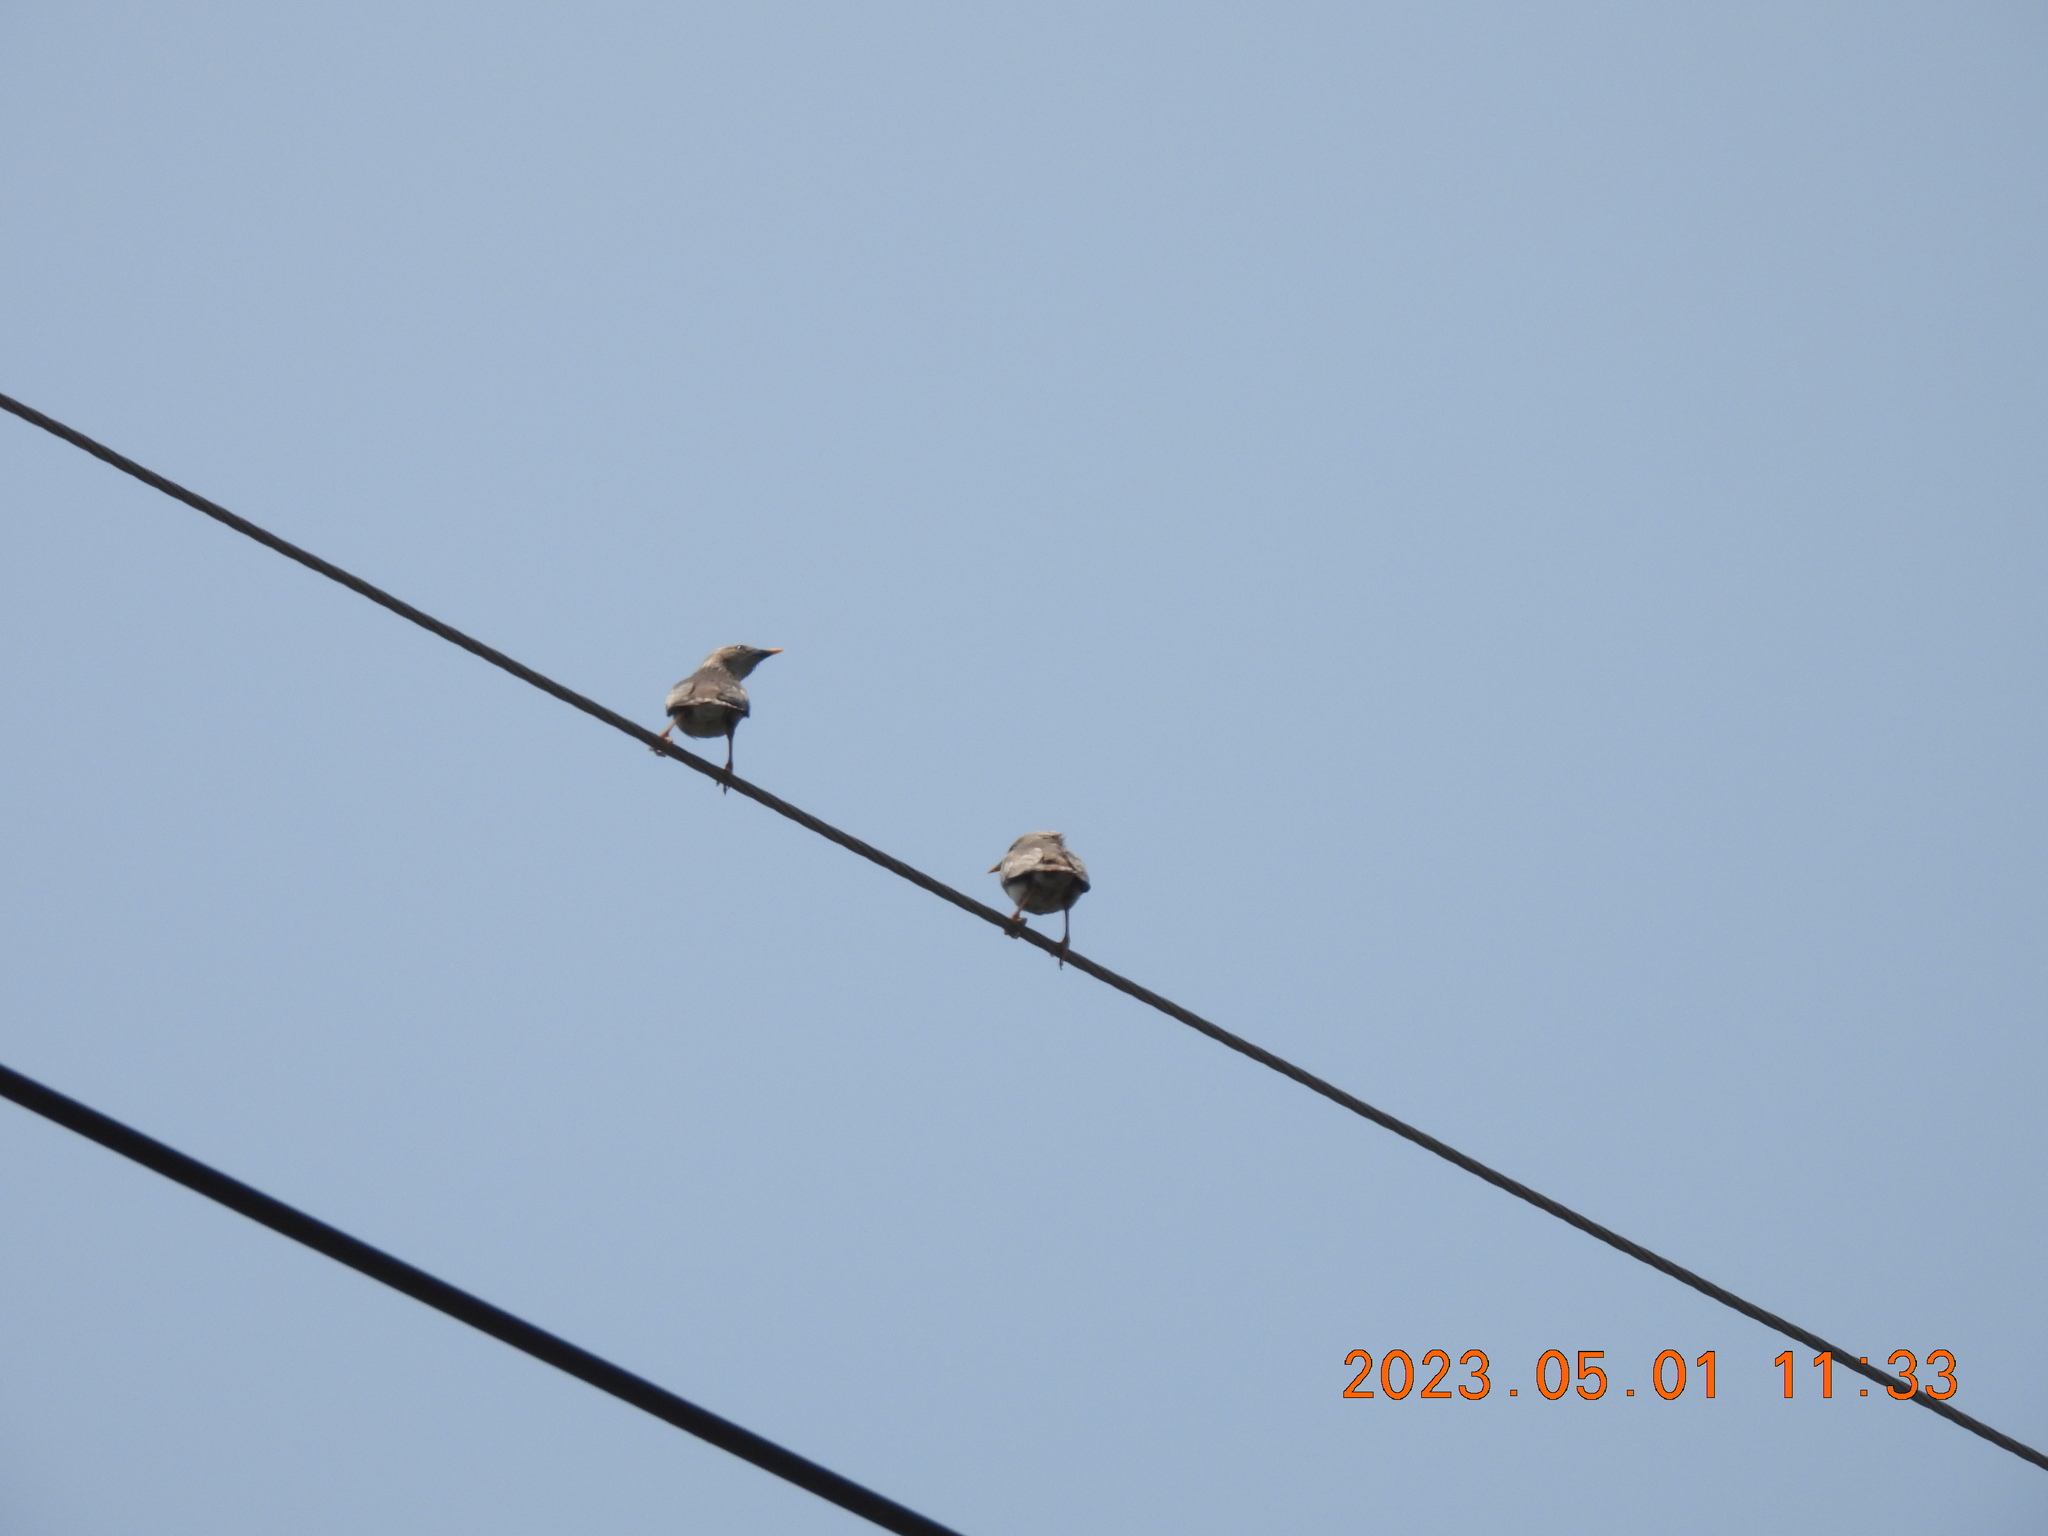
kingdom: Animalia
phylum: Chordata
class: Aves
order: Passeriformes
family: Sturnidae
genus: Sturnia
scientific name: Sturnia malabarica
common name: Chestnut-tailed starling
